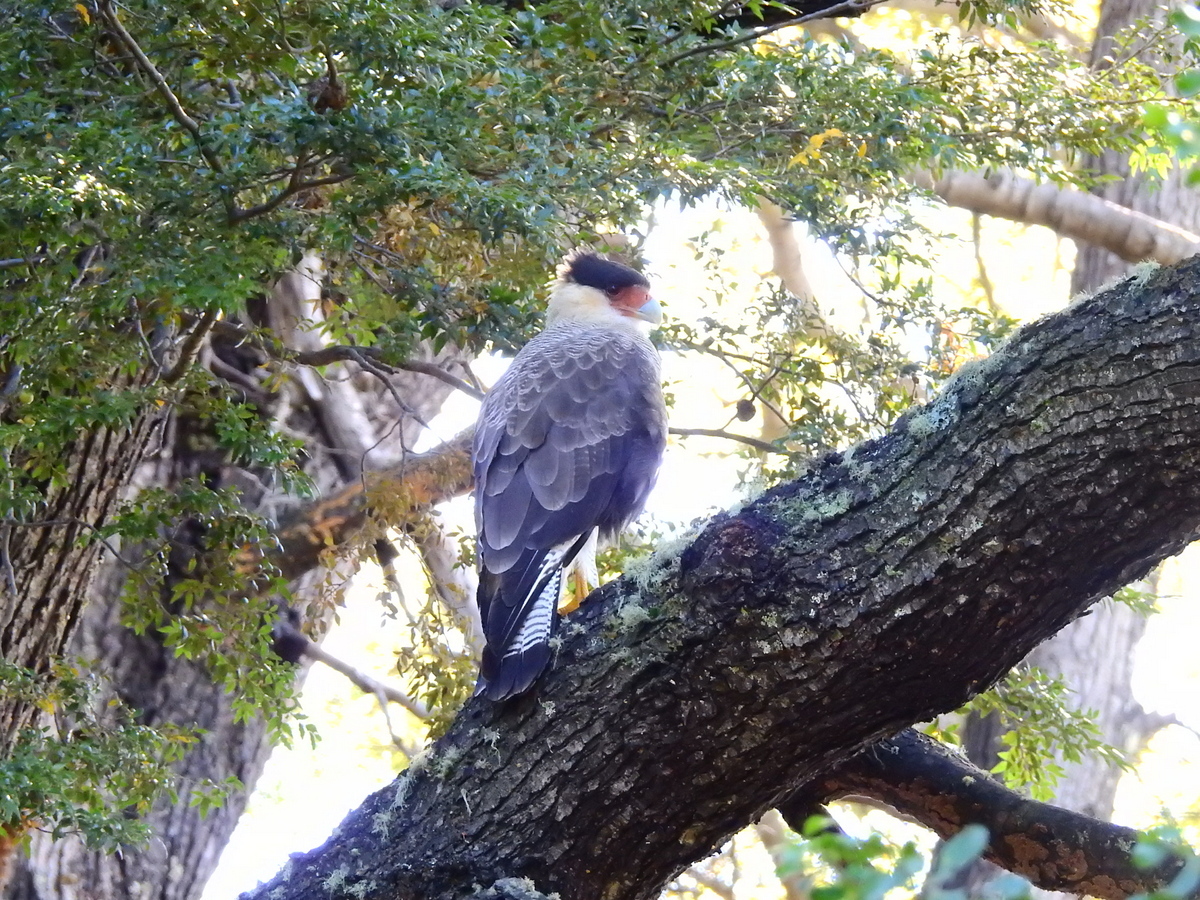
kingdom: Animalia
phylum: Chordata
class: Aves
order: Falconiformes
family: Falconidae
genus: Caracara
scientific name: Caracara plancus
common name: Southern caracara
